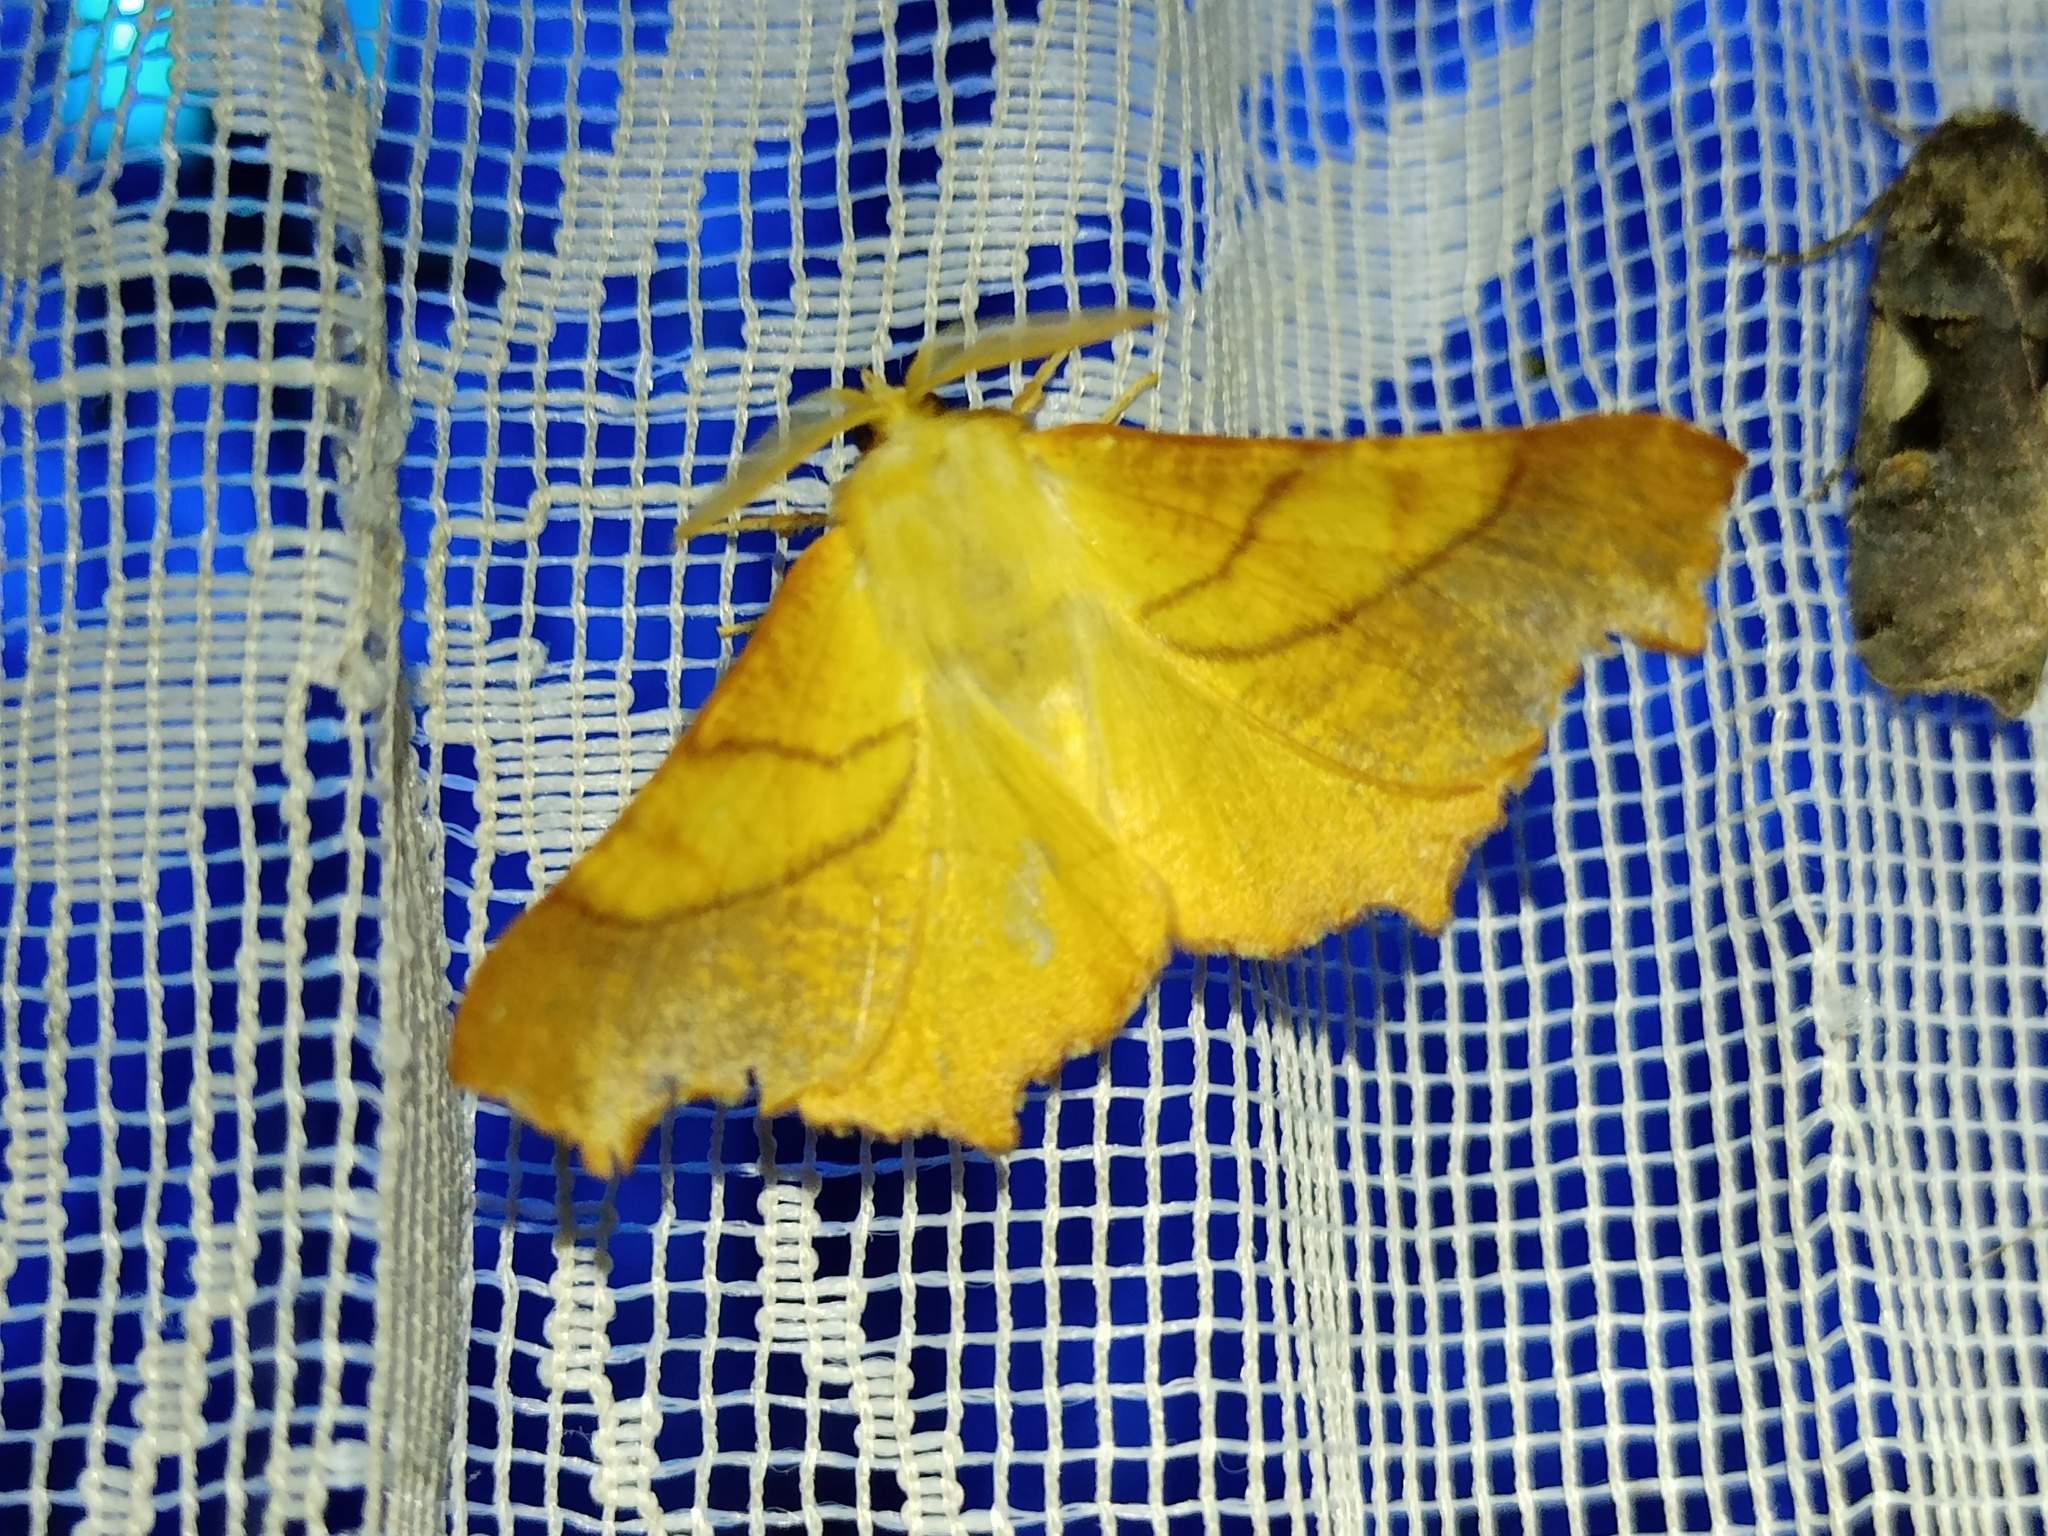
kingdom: Animalia
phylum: Arthropoda
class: Insecta
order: Lepidoptera
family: Geometridae
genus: Ennomos
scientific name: Ennomos fuscantaria
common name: Dusky thorn
